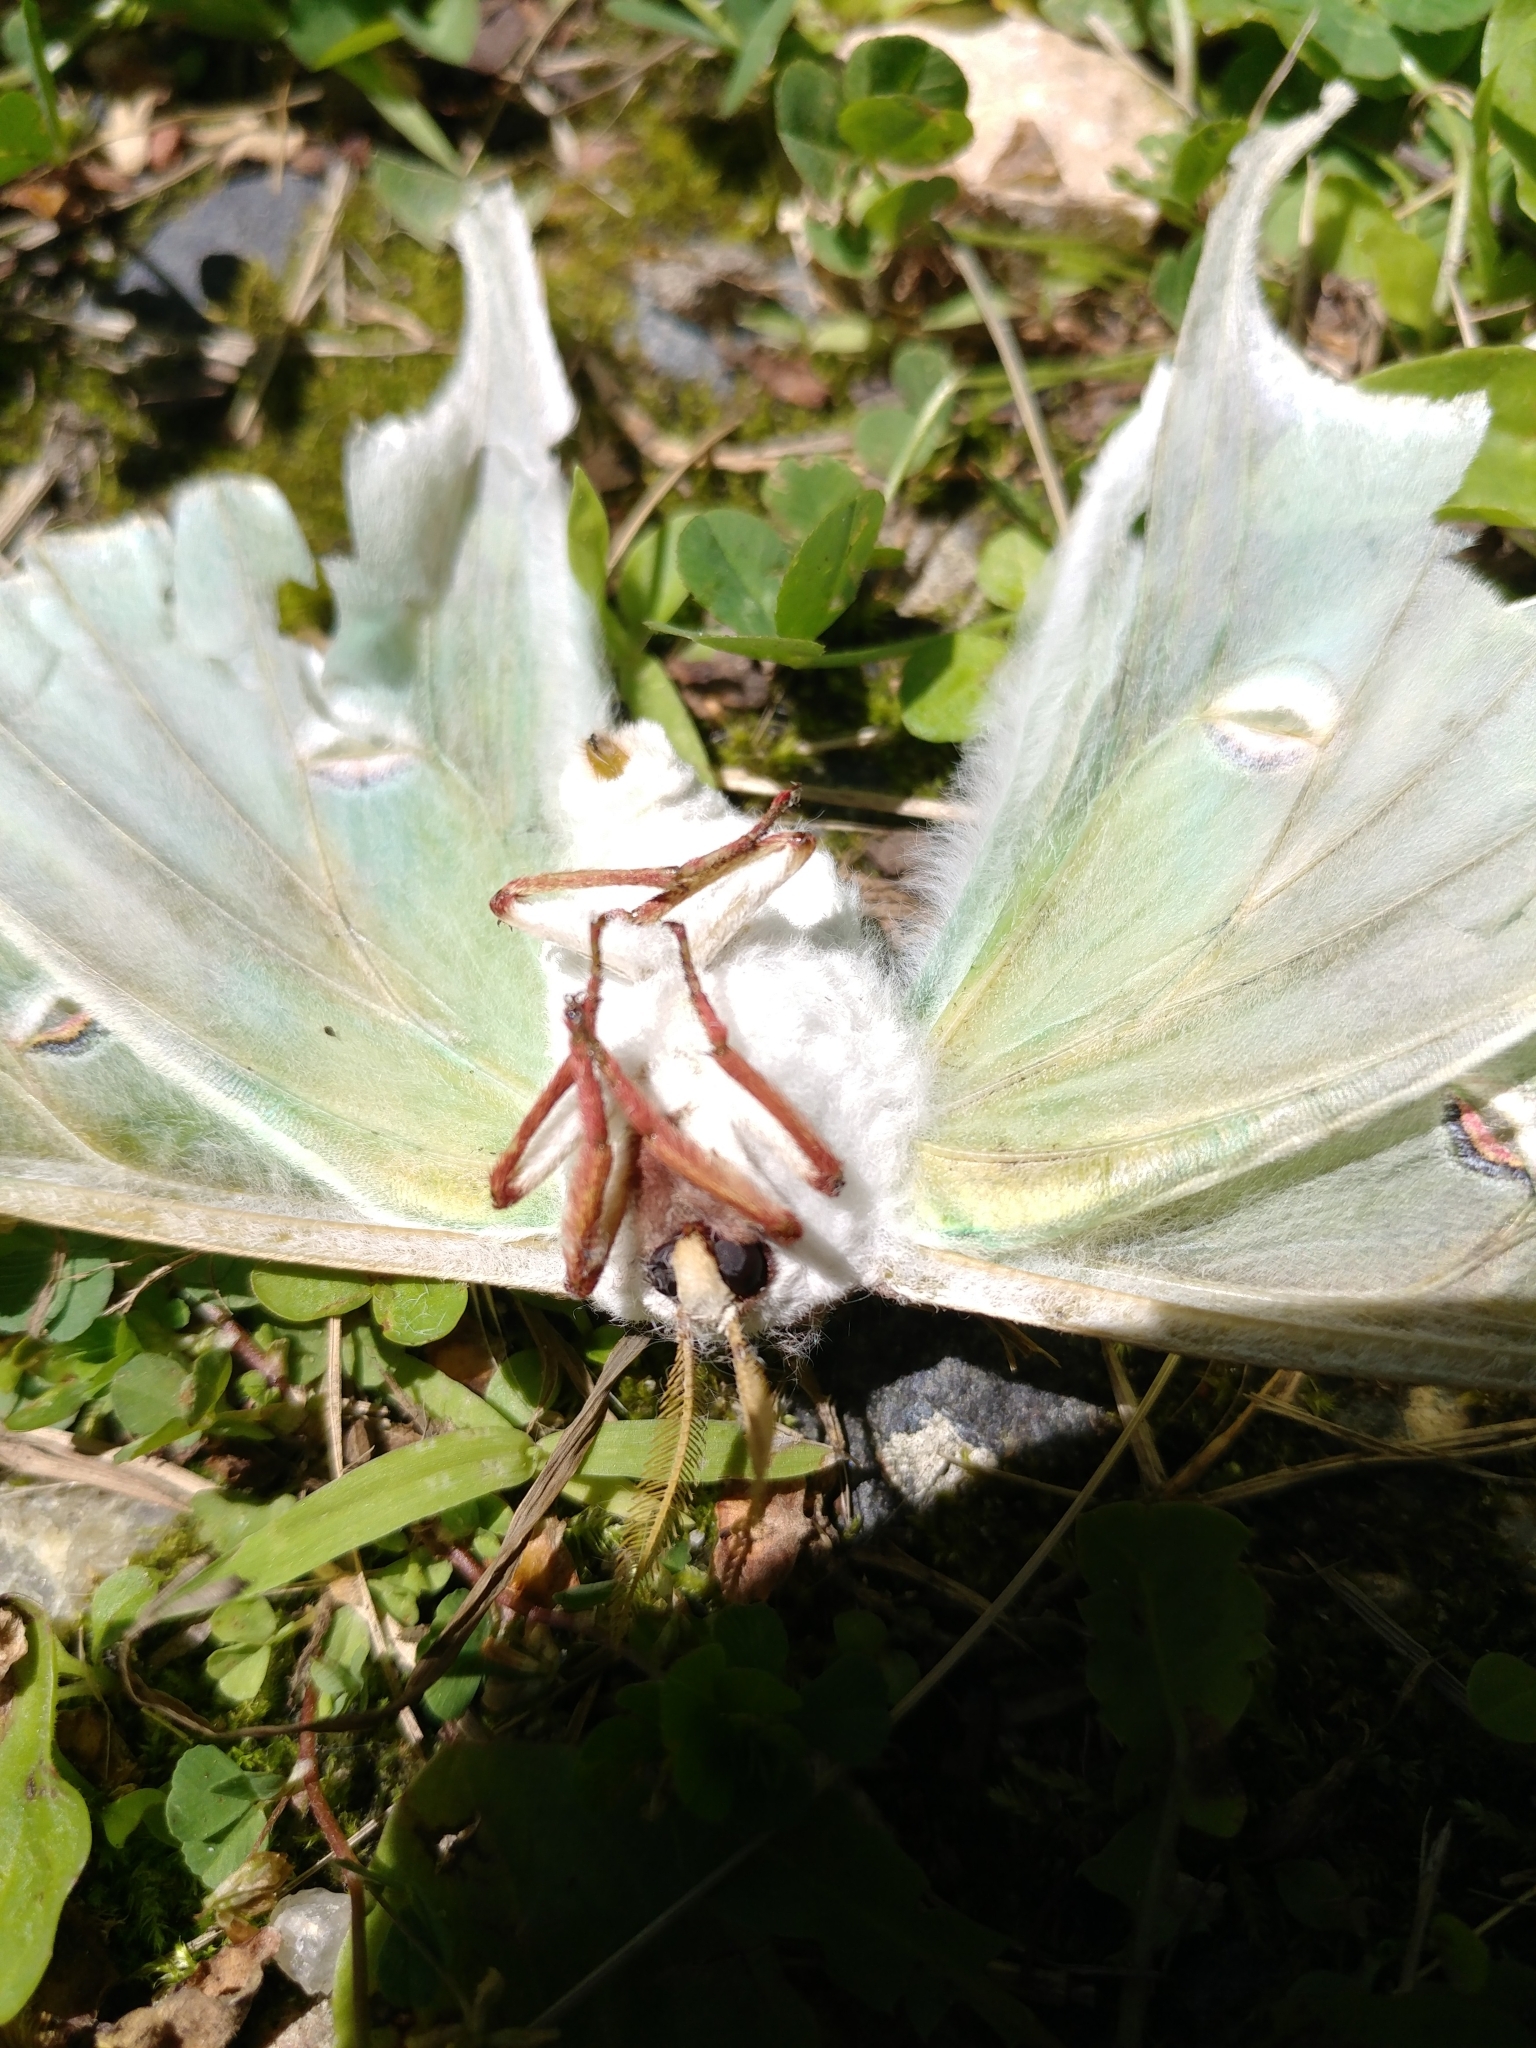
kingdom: Animalia
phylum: Arthropoda
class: Insecta
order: Lepidoptera
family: Saturniidae
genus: Actias
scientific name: Actias luna
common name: Luna moth
